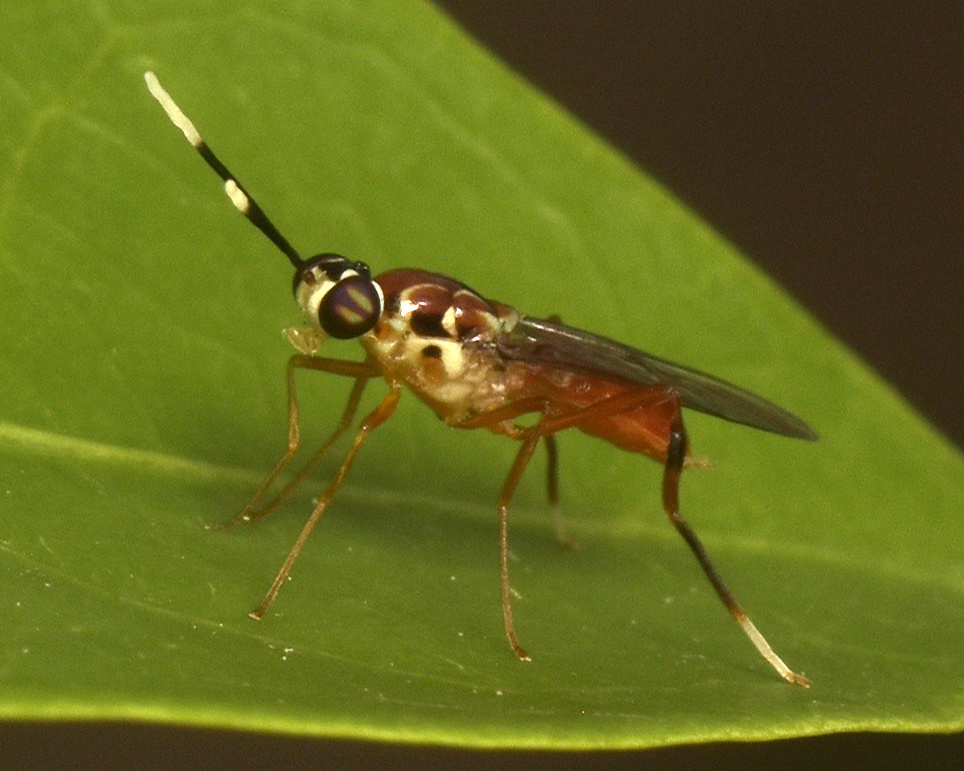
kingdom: Animalia
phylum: Arthropoda
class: Insecta
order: Diptera
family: Stratiomyidae
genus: Elissoma
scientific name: Elissoma danielsi
